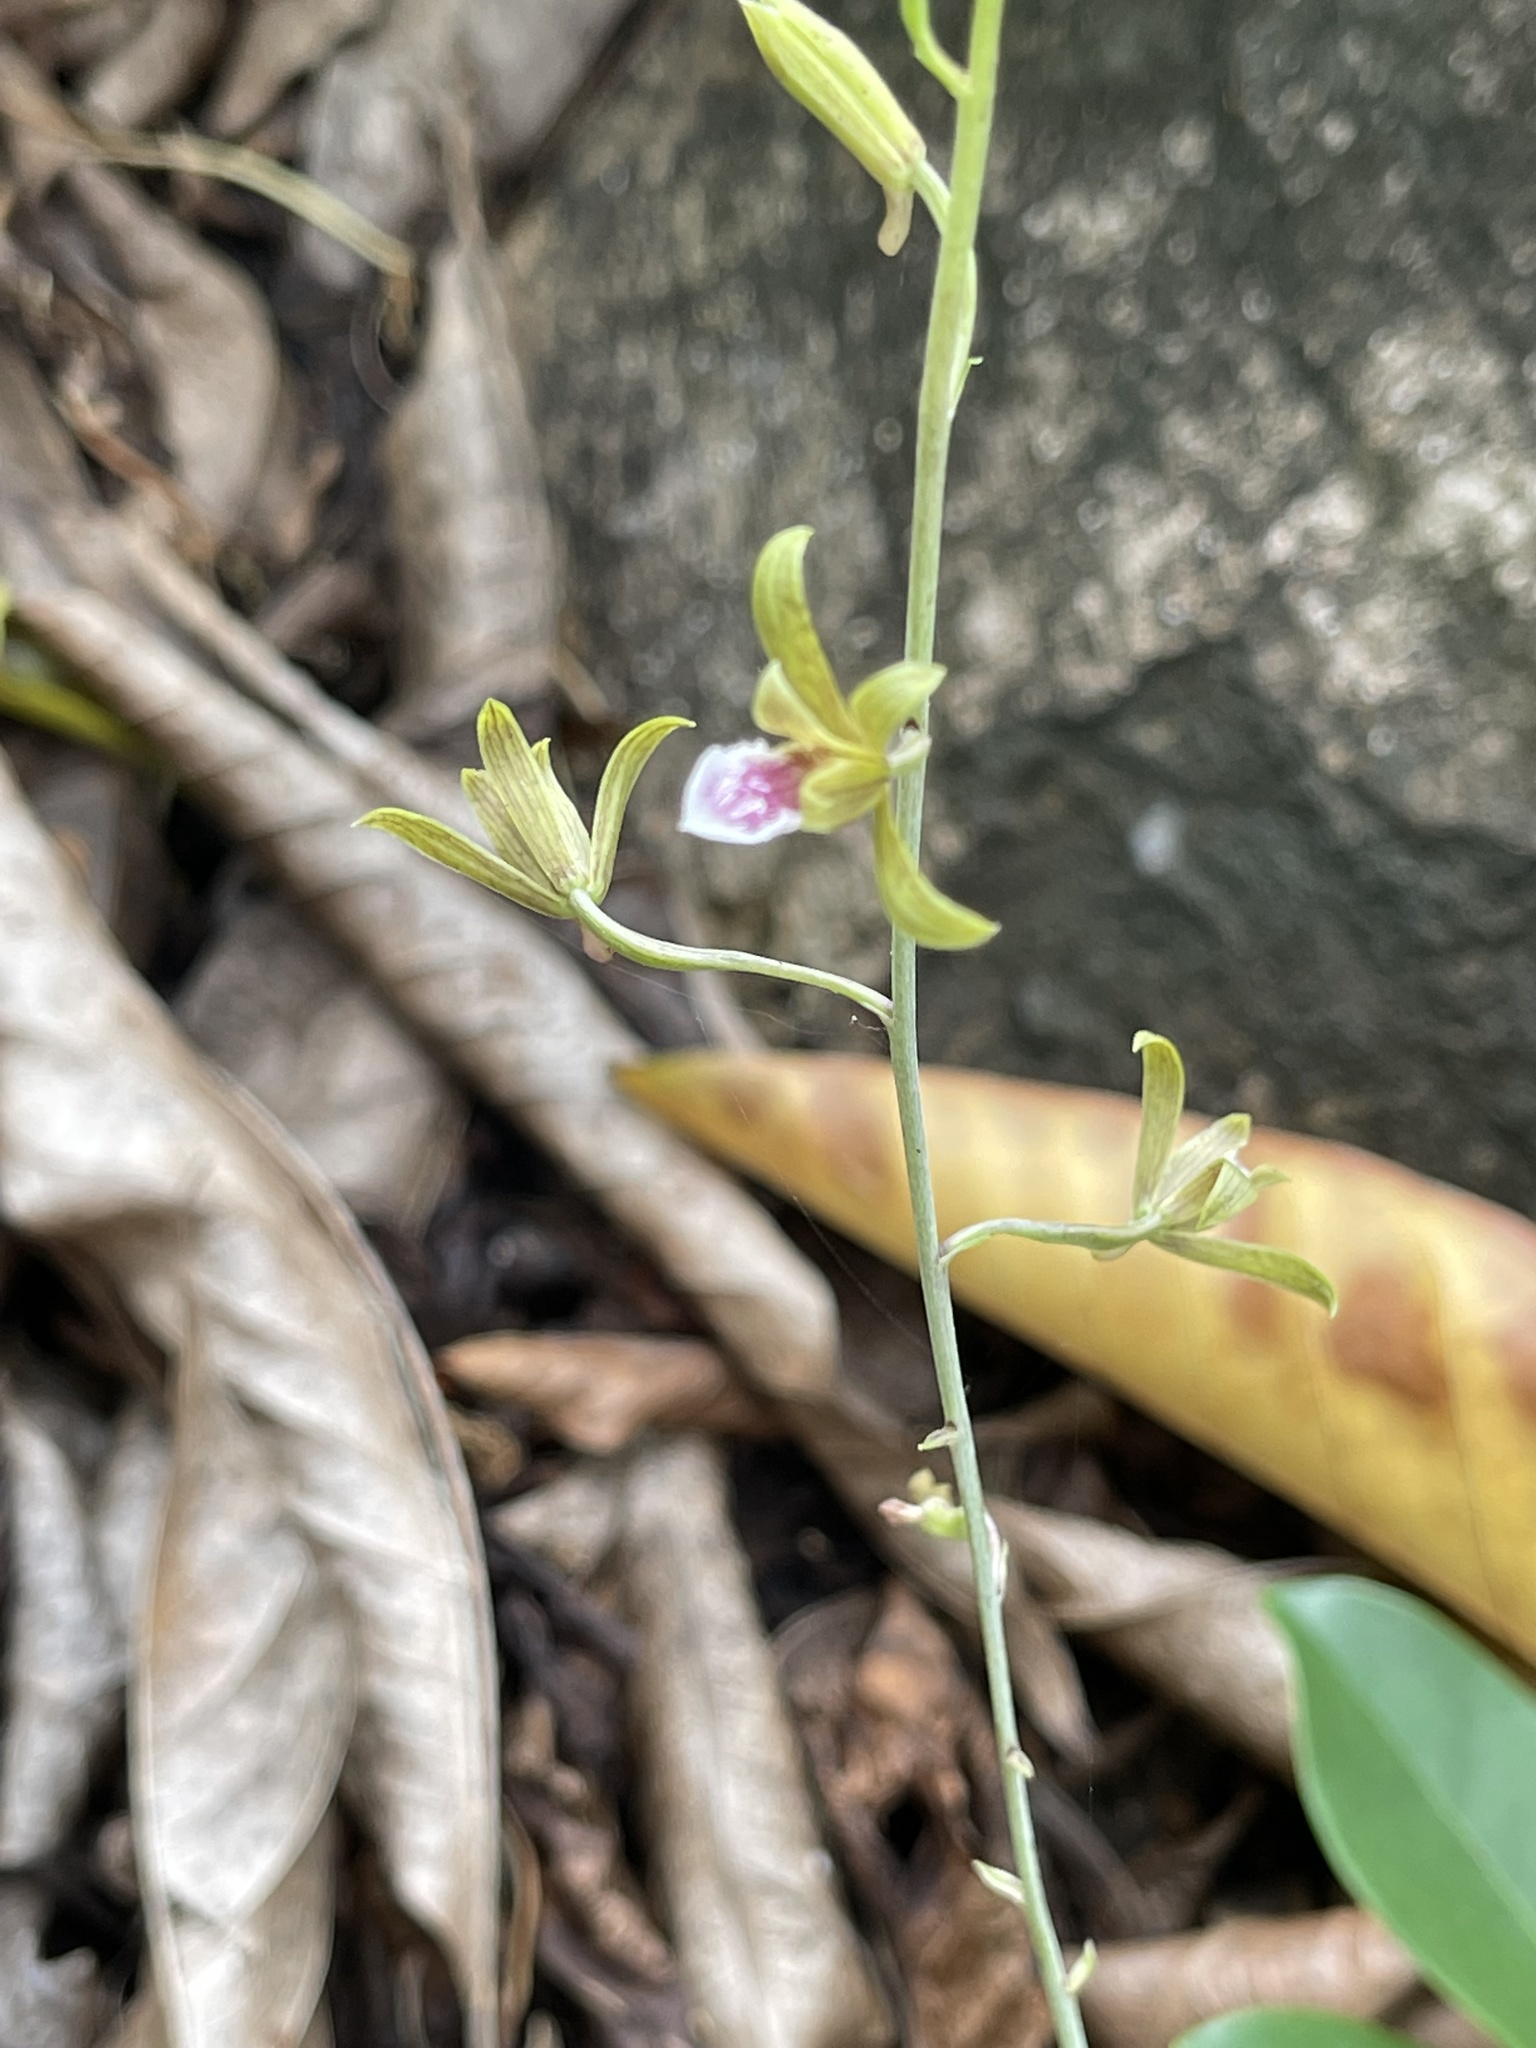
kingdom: Plantae
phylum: Tracheophyta
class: Liliopsida
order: Asparagales
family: Orchidaceae
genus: Eulophia
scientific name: Eulophia graminea
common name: Orchid
